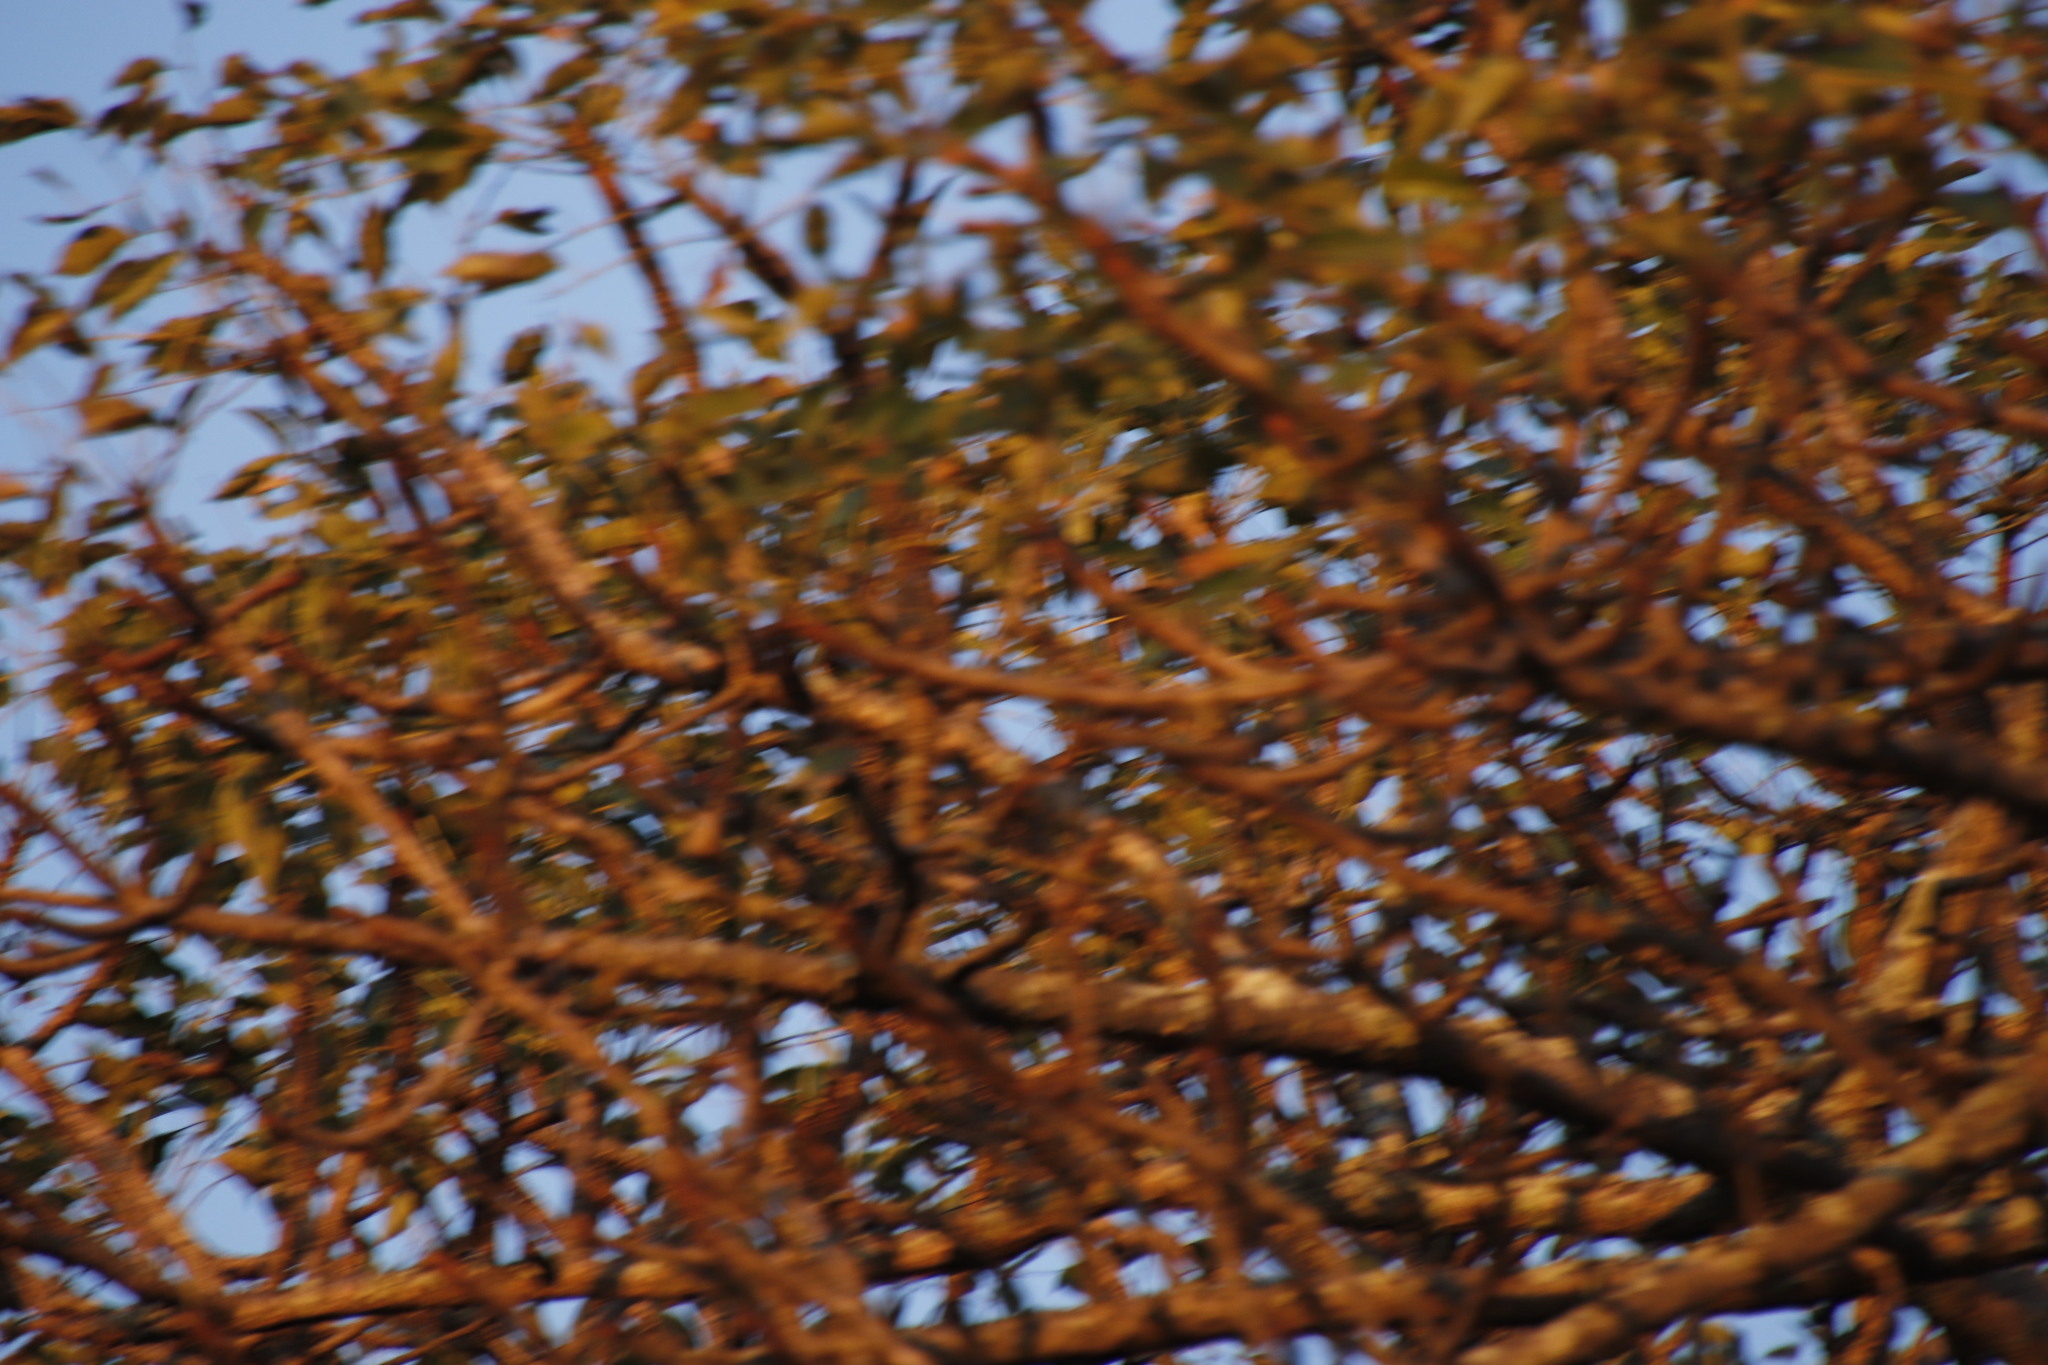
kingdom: Plantae
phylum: Tracheophyta
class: Magnoliopsida
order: Sapindales
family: Anacardiaceae
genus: Sclerocarya
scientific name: Sclerocarya birrea
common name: Marula
